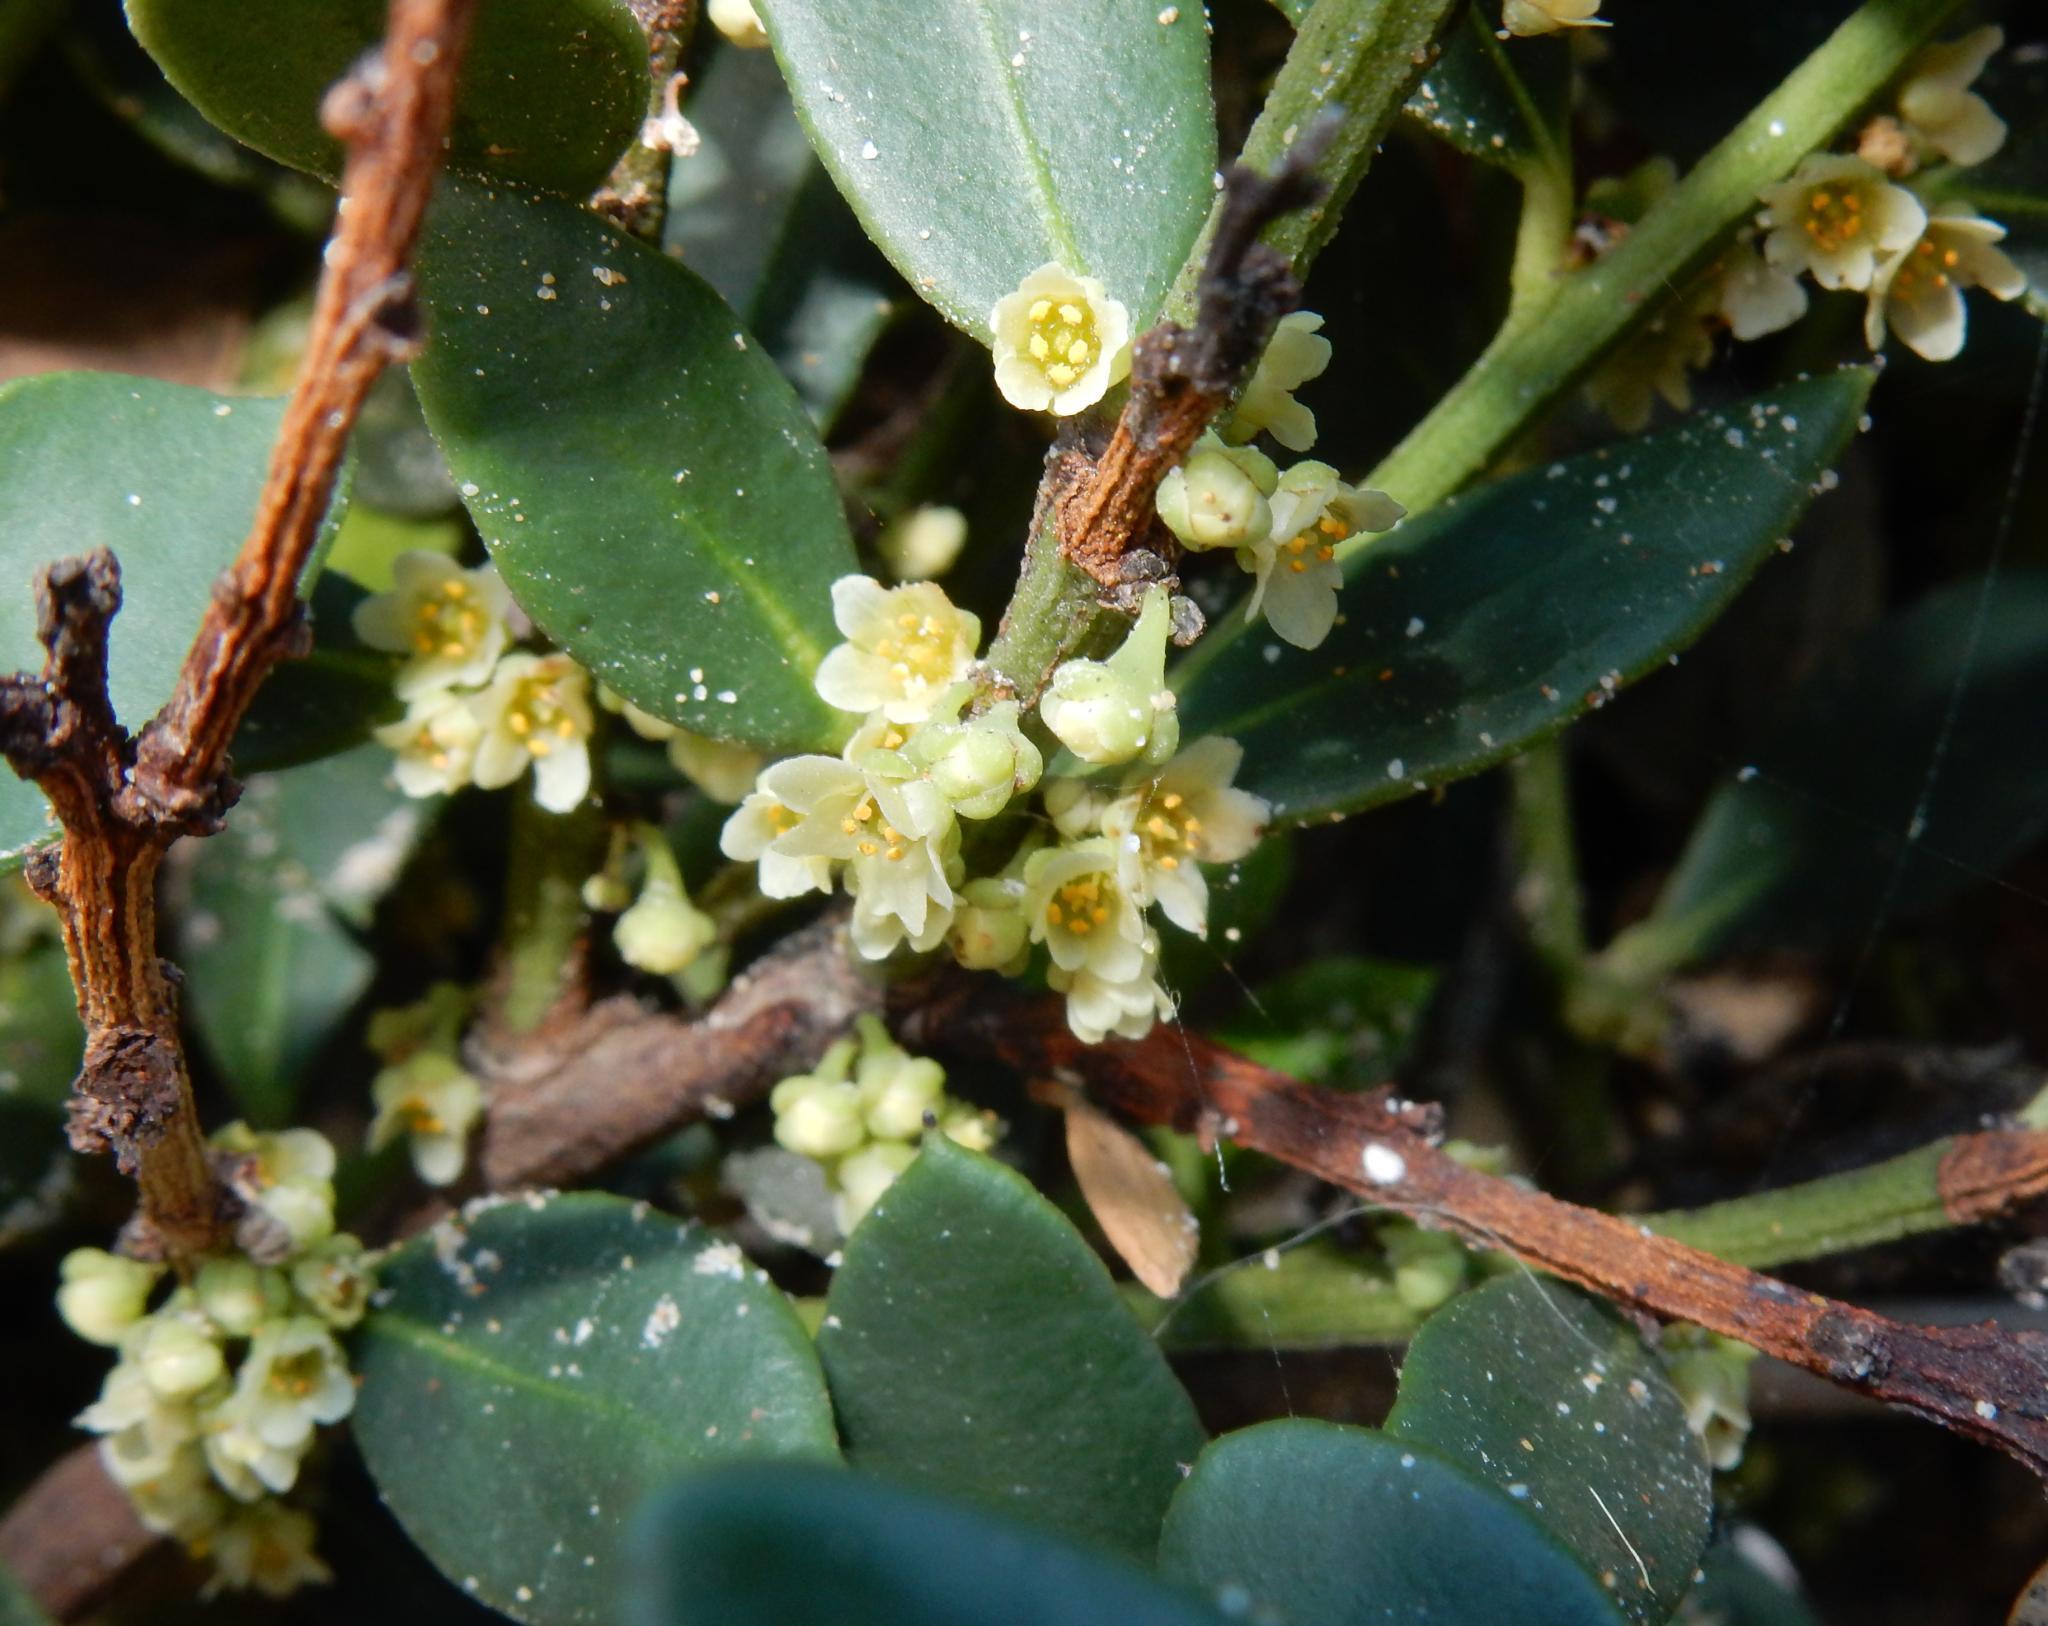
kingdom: Plantae
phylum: Tracheophyta
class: Magnoliopsida
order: Celastrales
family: Celastraceae
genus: Robsonodendron
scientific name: Robsonodendron maritimum
